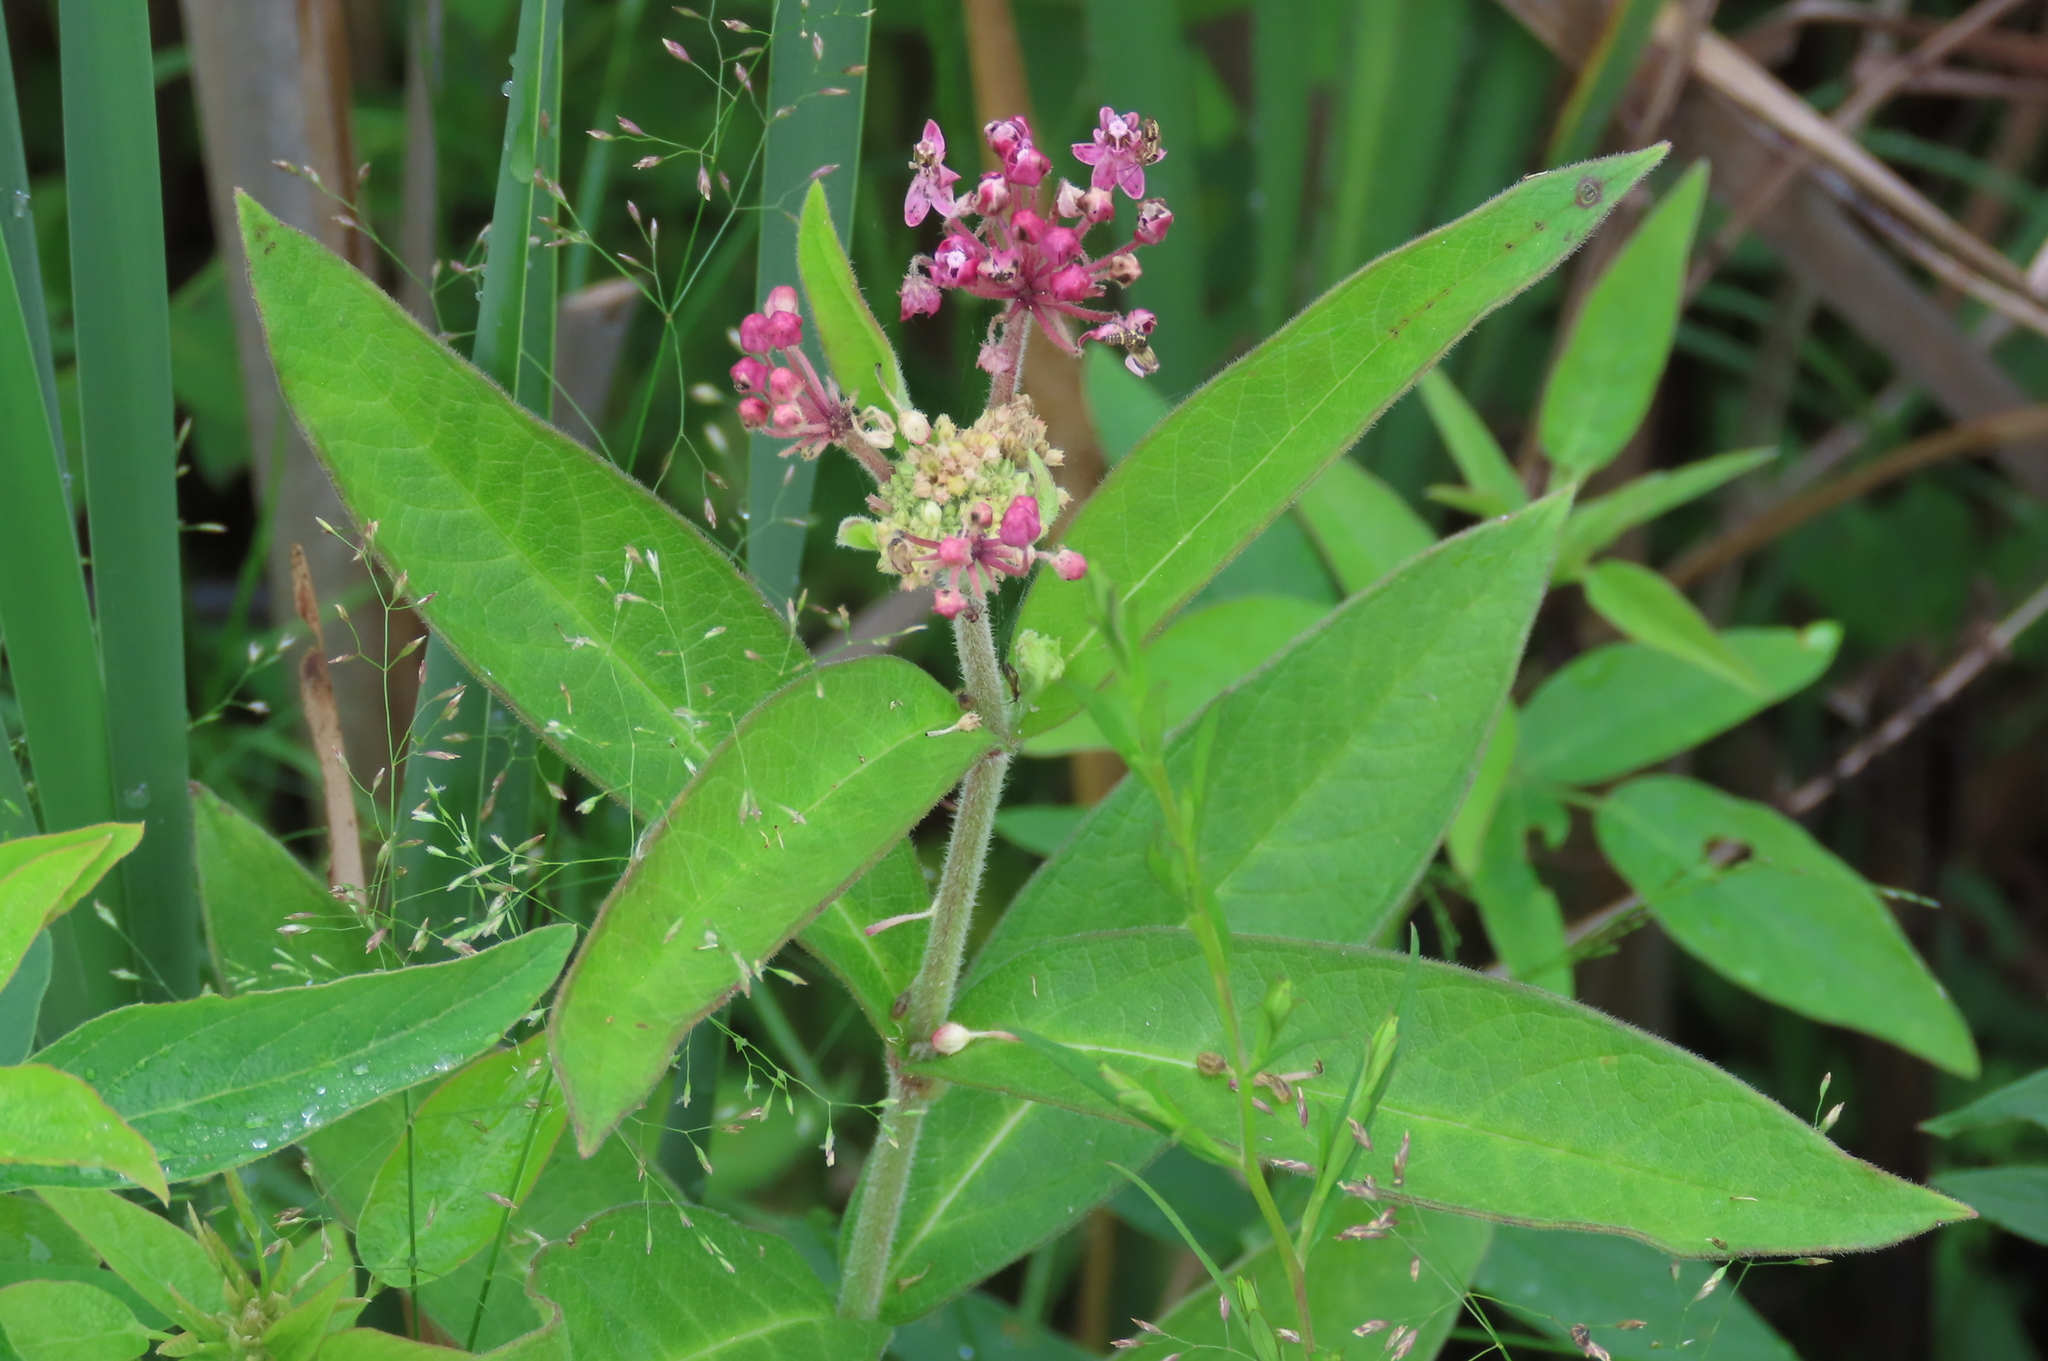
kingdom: Plantae
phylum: Tracheophyta
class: Magnoliopsida
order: Gentianales
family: Apocynaceae
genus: Asclepias
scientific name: Asclepias incarnata
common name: Swamp milkweed
